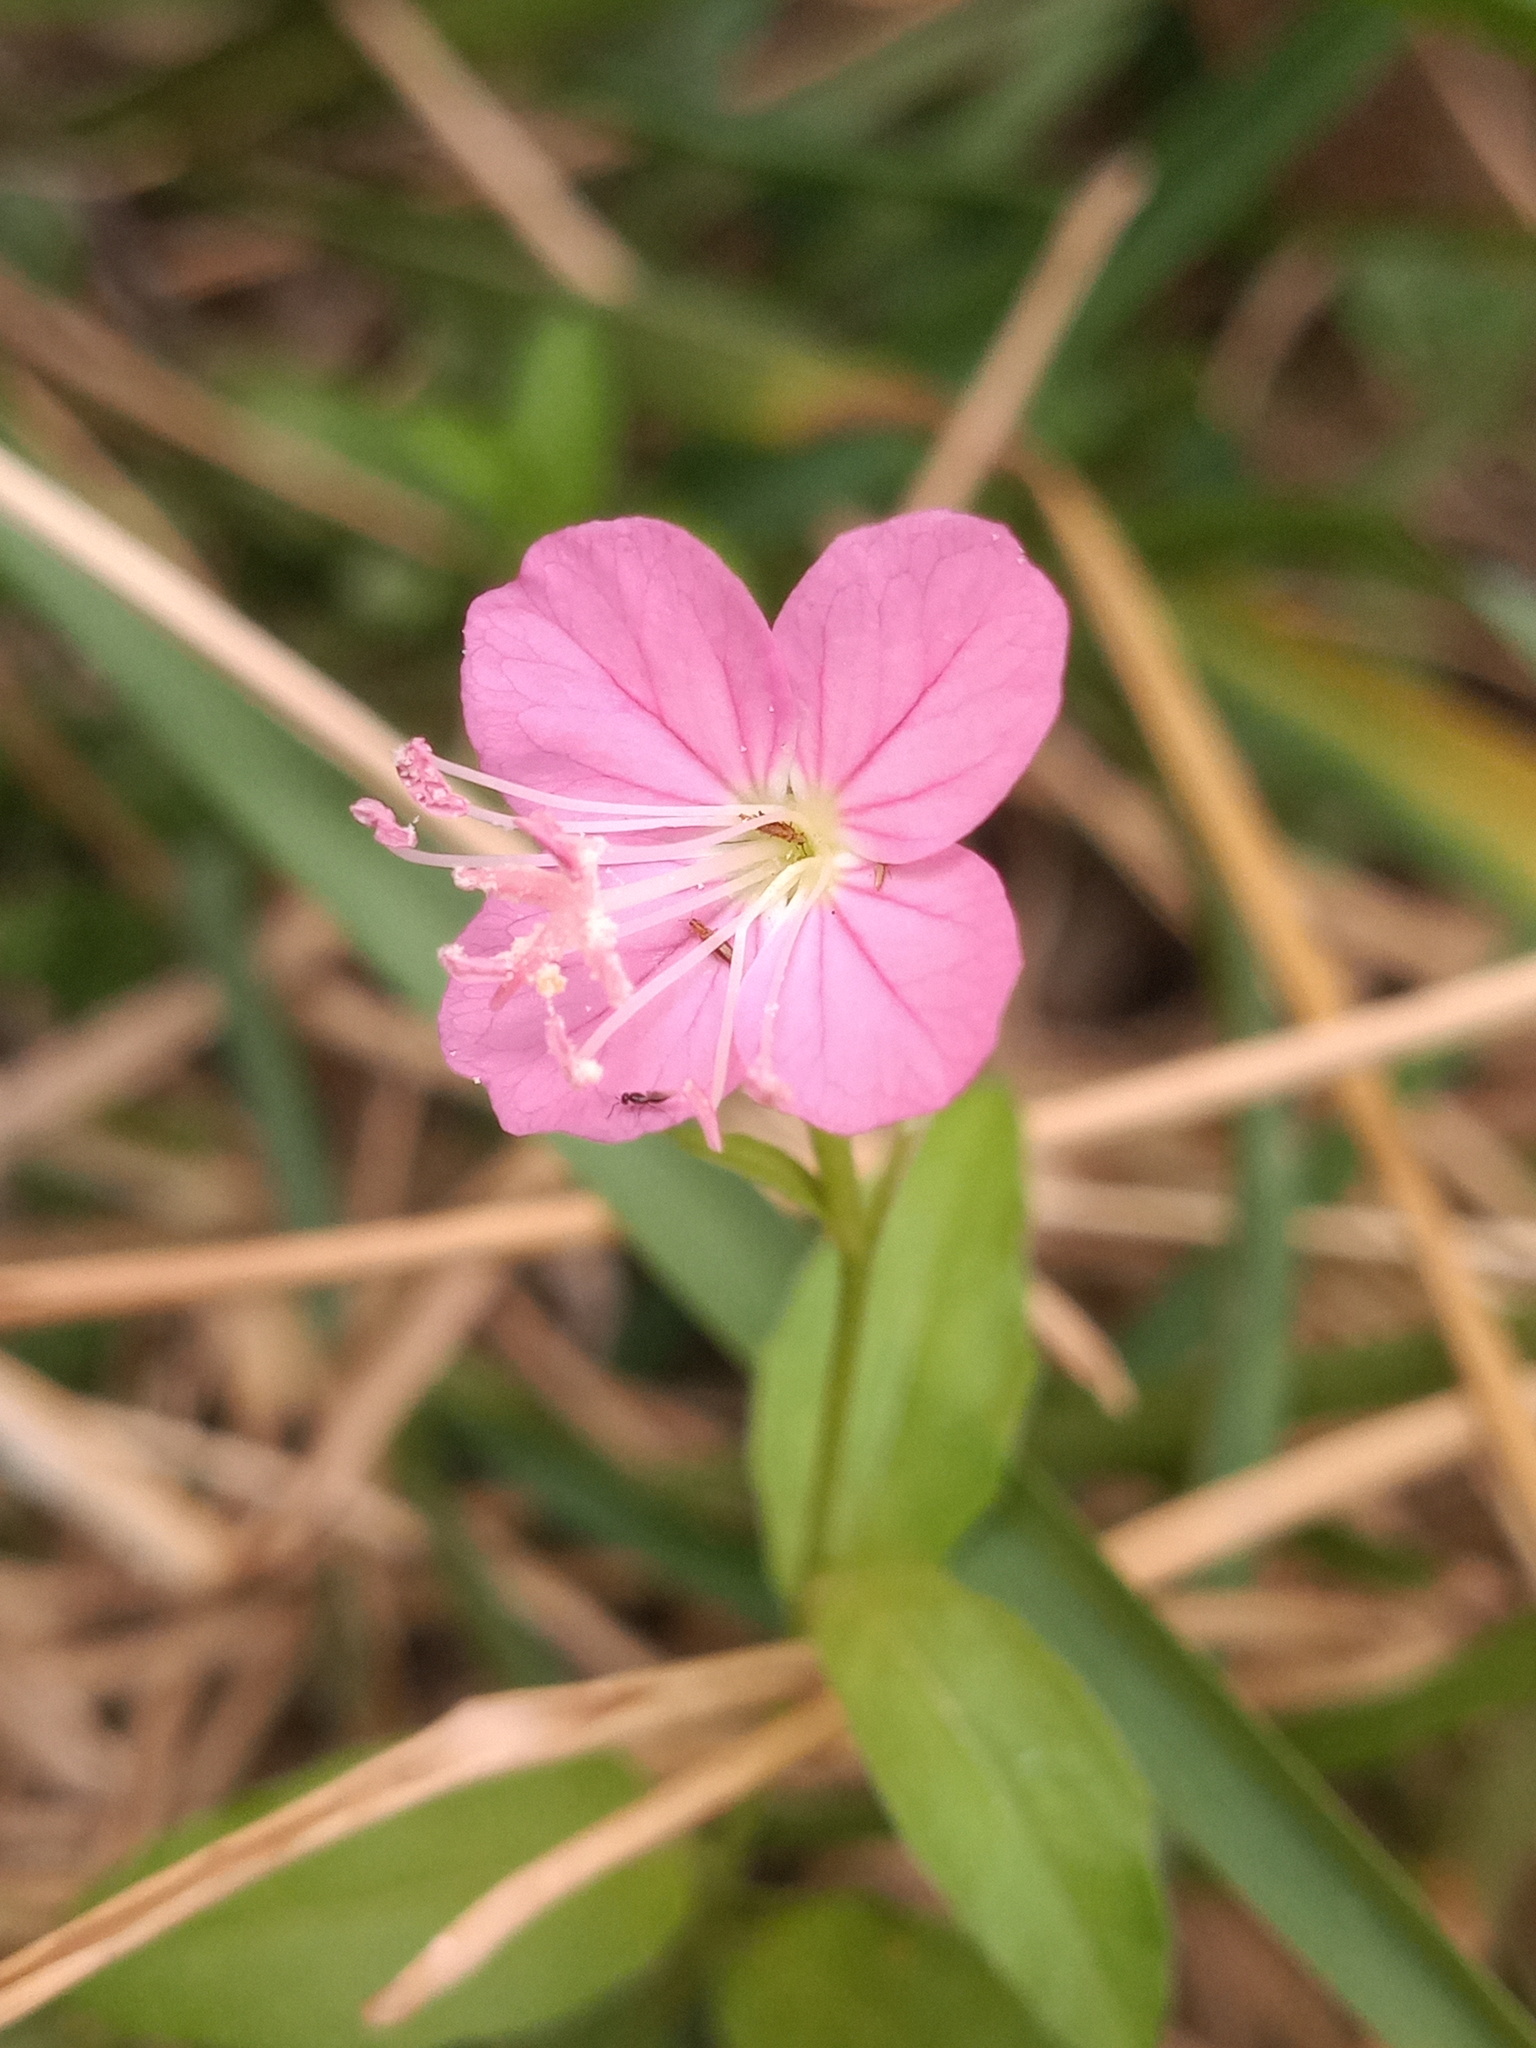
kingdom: Plantae
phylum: Tracheophyta
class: Magnoliopsida
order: Myrtales
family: Onagraceae
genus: Oenothera
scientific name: Oenothera rosea
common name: Rosy evening-primrose
